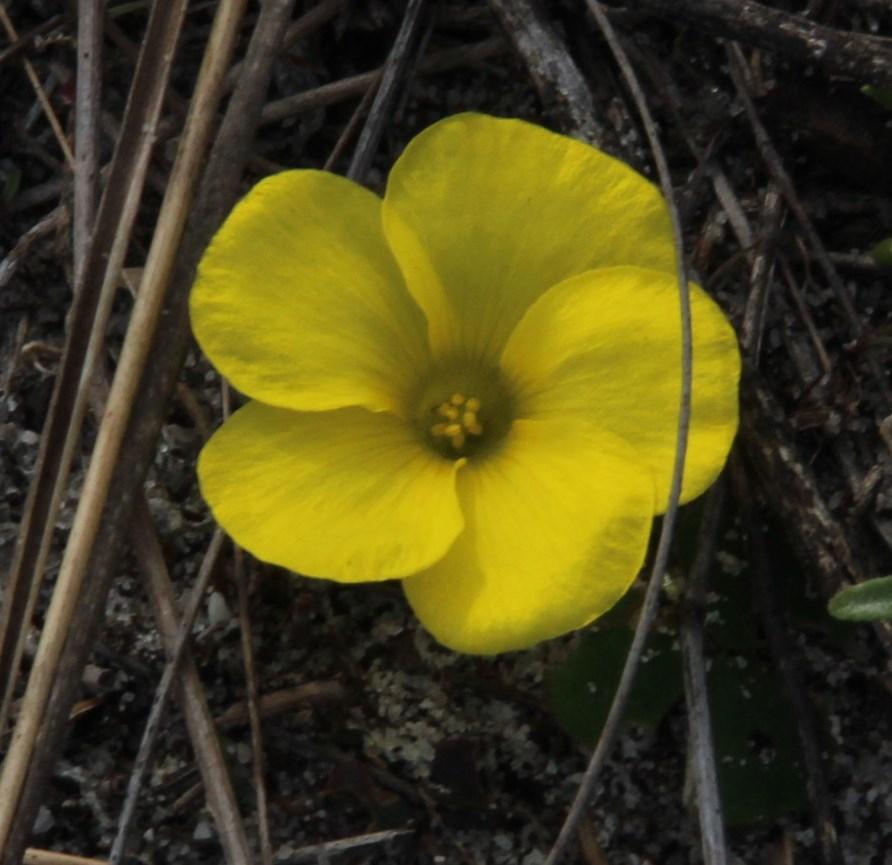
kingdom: Plantae
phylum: Tracheophyta
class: Magnoliopsida
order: Oxalidales
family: Oxalidaceae
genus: Oxalis
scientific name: Oxalis luteola
